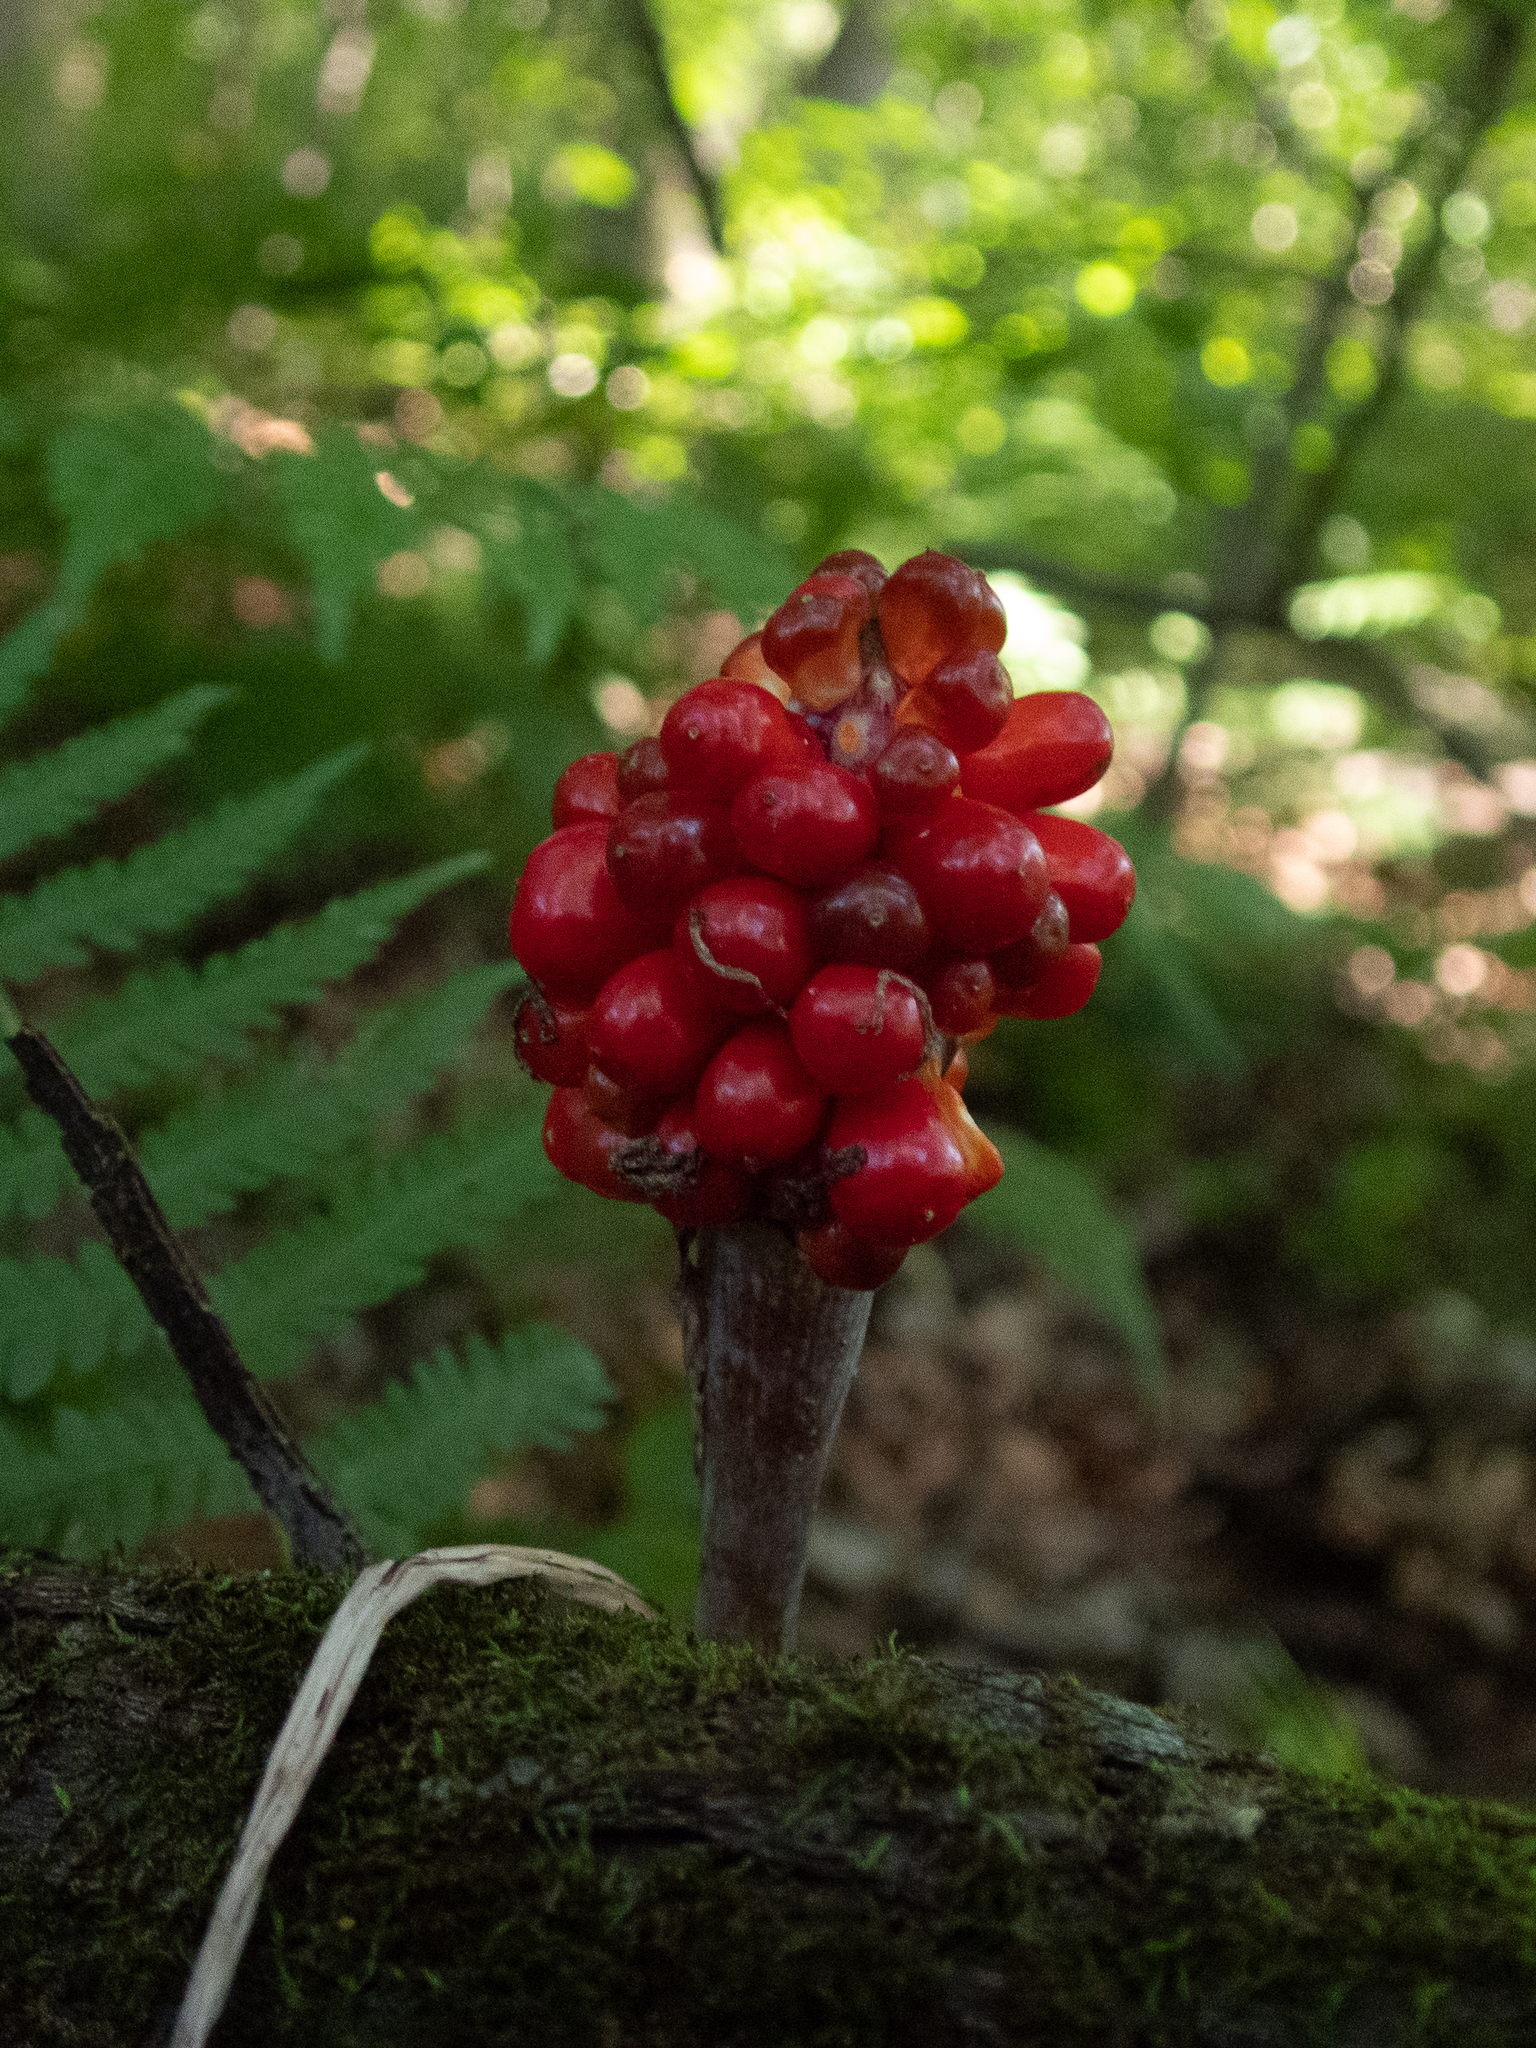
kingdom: Plantae
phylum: Tracheophyta
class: Liliopsida
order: Alismatales
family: Araceae
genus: Arisaema
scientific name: Arisaema triphyllum
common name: Jack-in-the-pulpit
